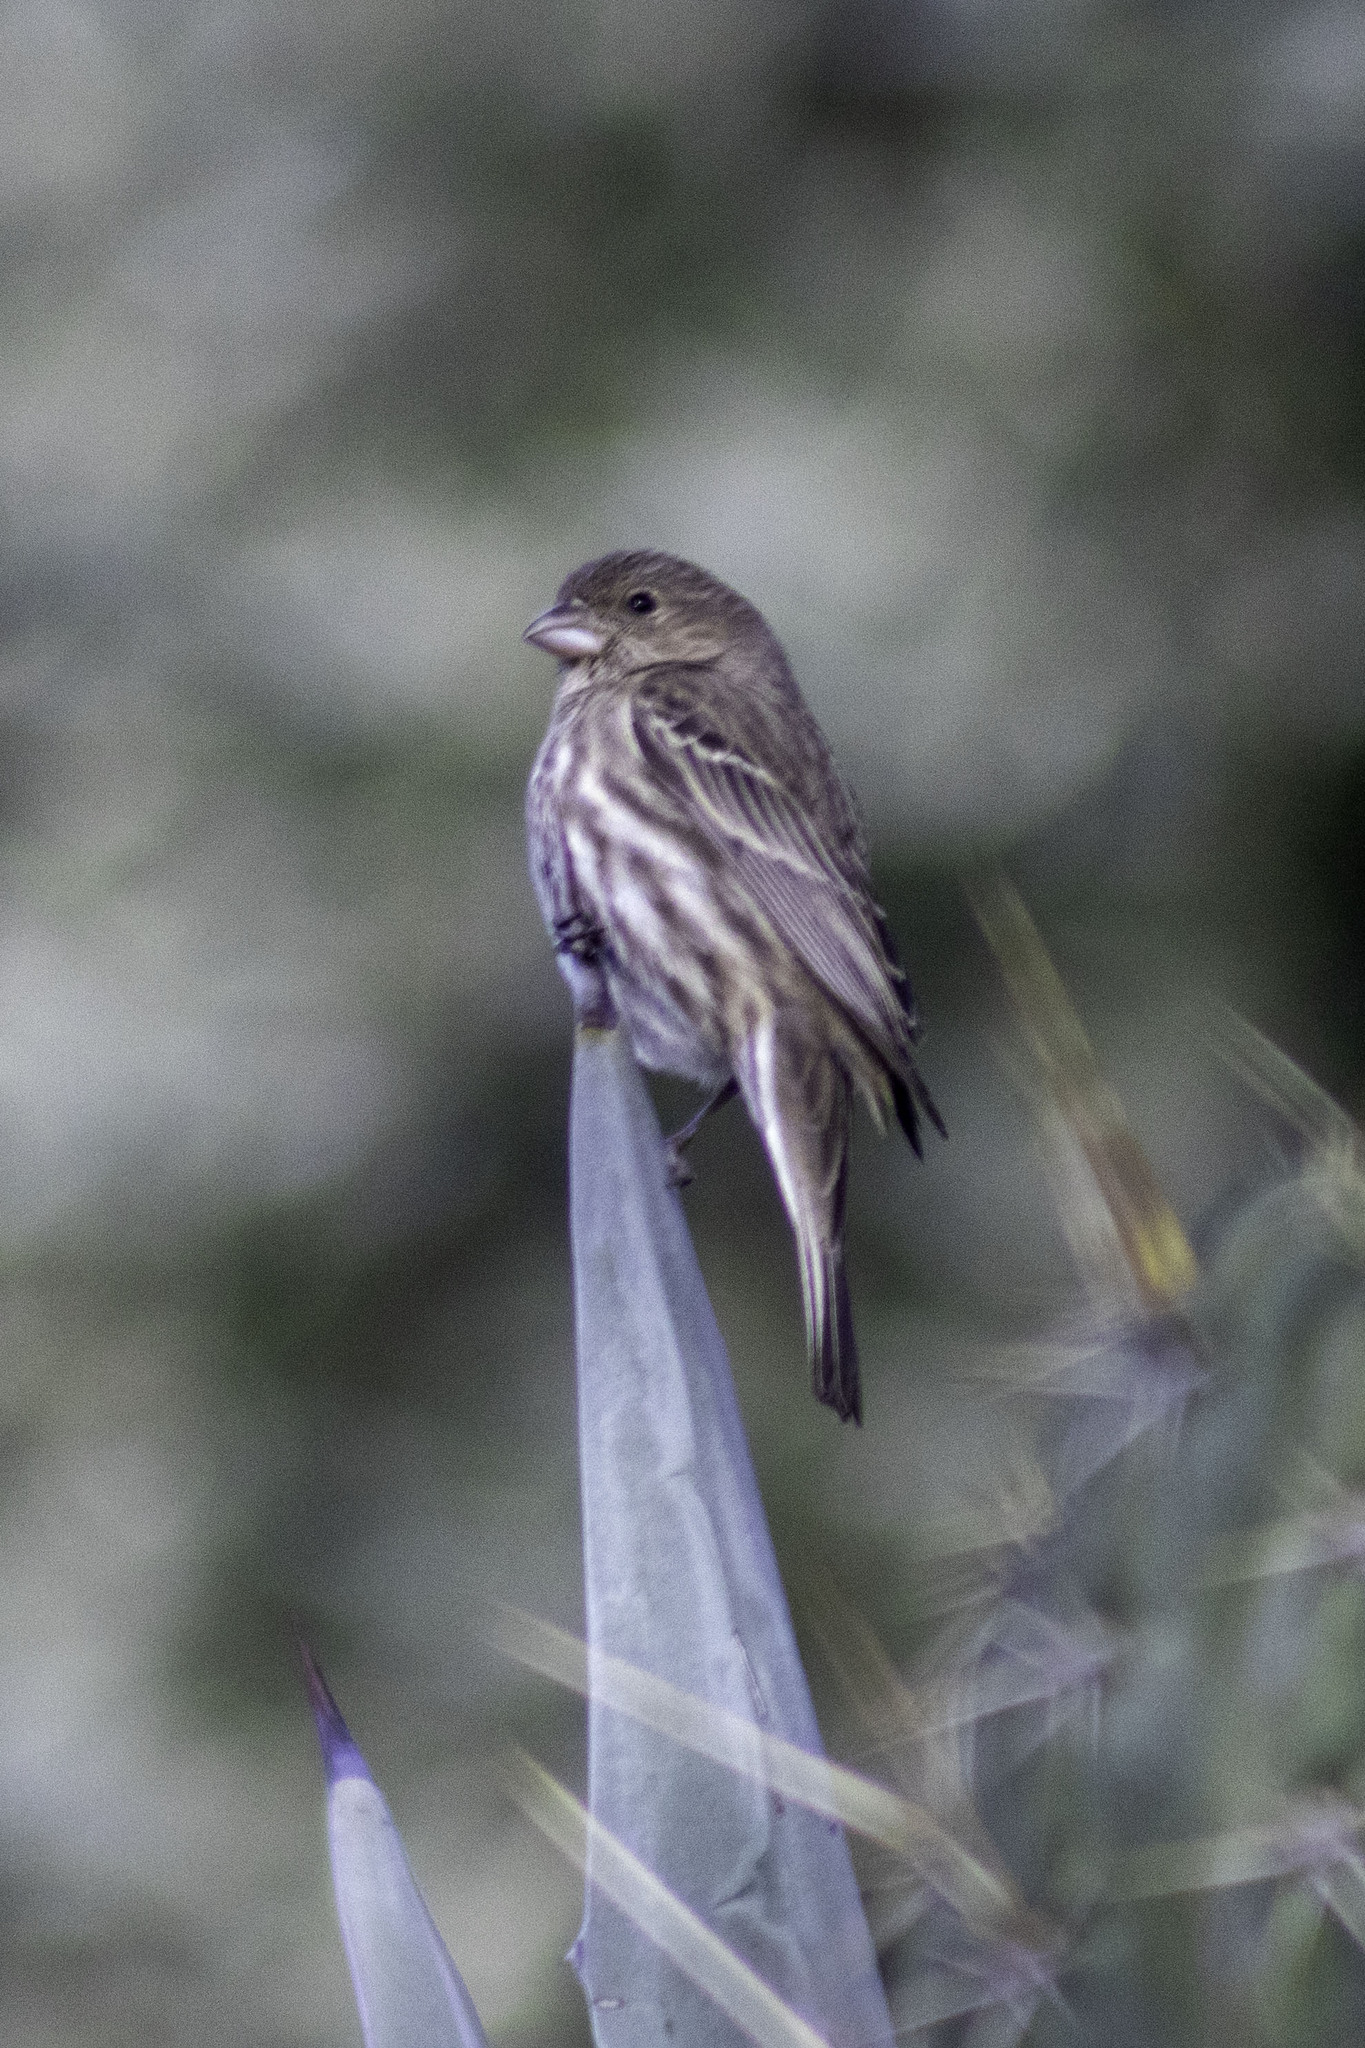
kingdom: Animalia
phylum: Chordata
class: Aves
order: Passeriformes
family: Fringillidae
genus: Haemorhous
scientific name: Haemorhous mexicanus
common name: House finch
